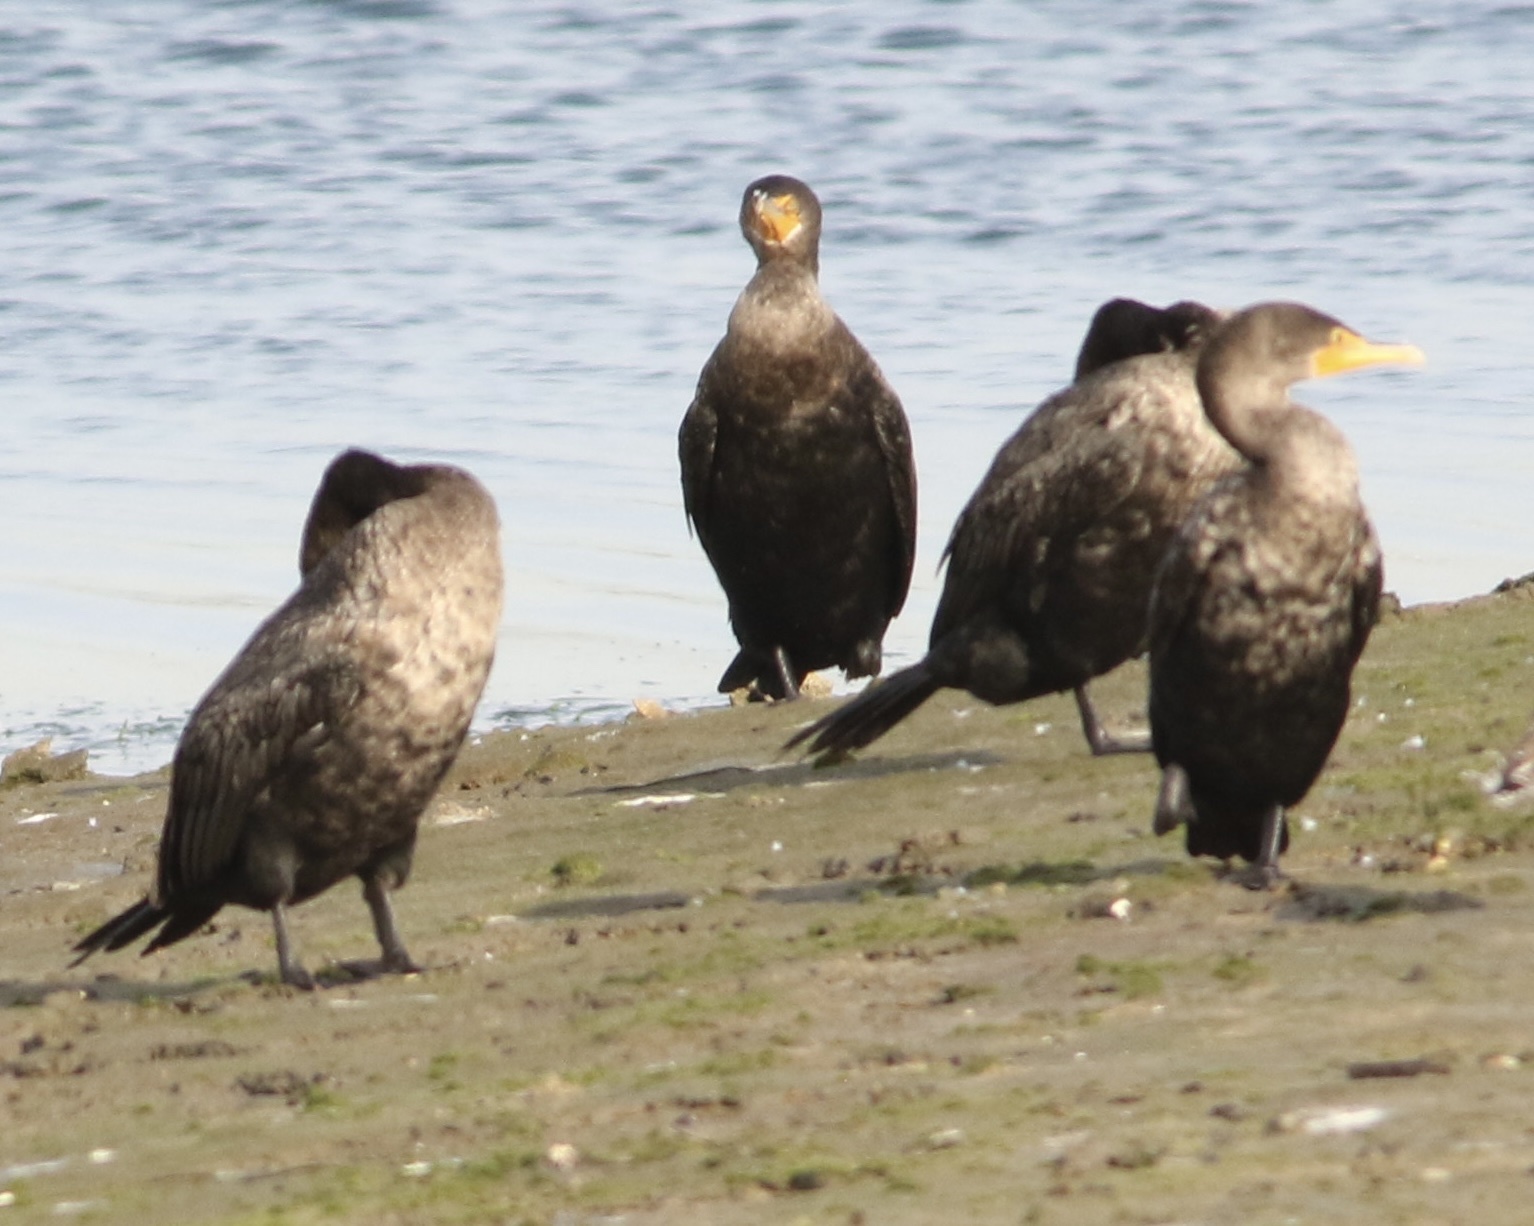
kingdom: Animalia
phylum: Chordata
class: Aves
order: Suliformes
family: Phalacrocoracidae
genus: Phalacrocorax
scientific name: Phalacrocorax auritus
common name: Double-crested cormorant
